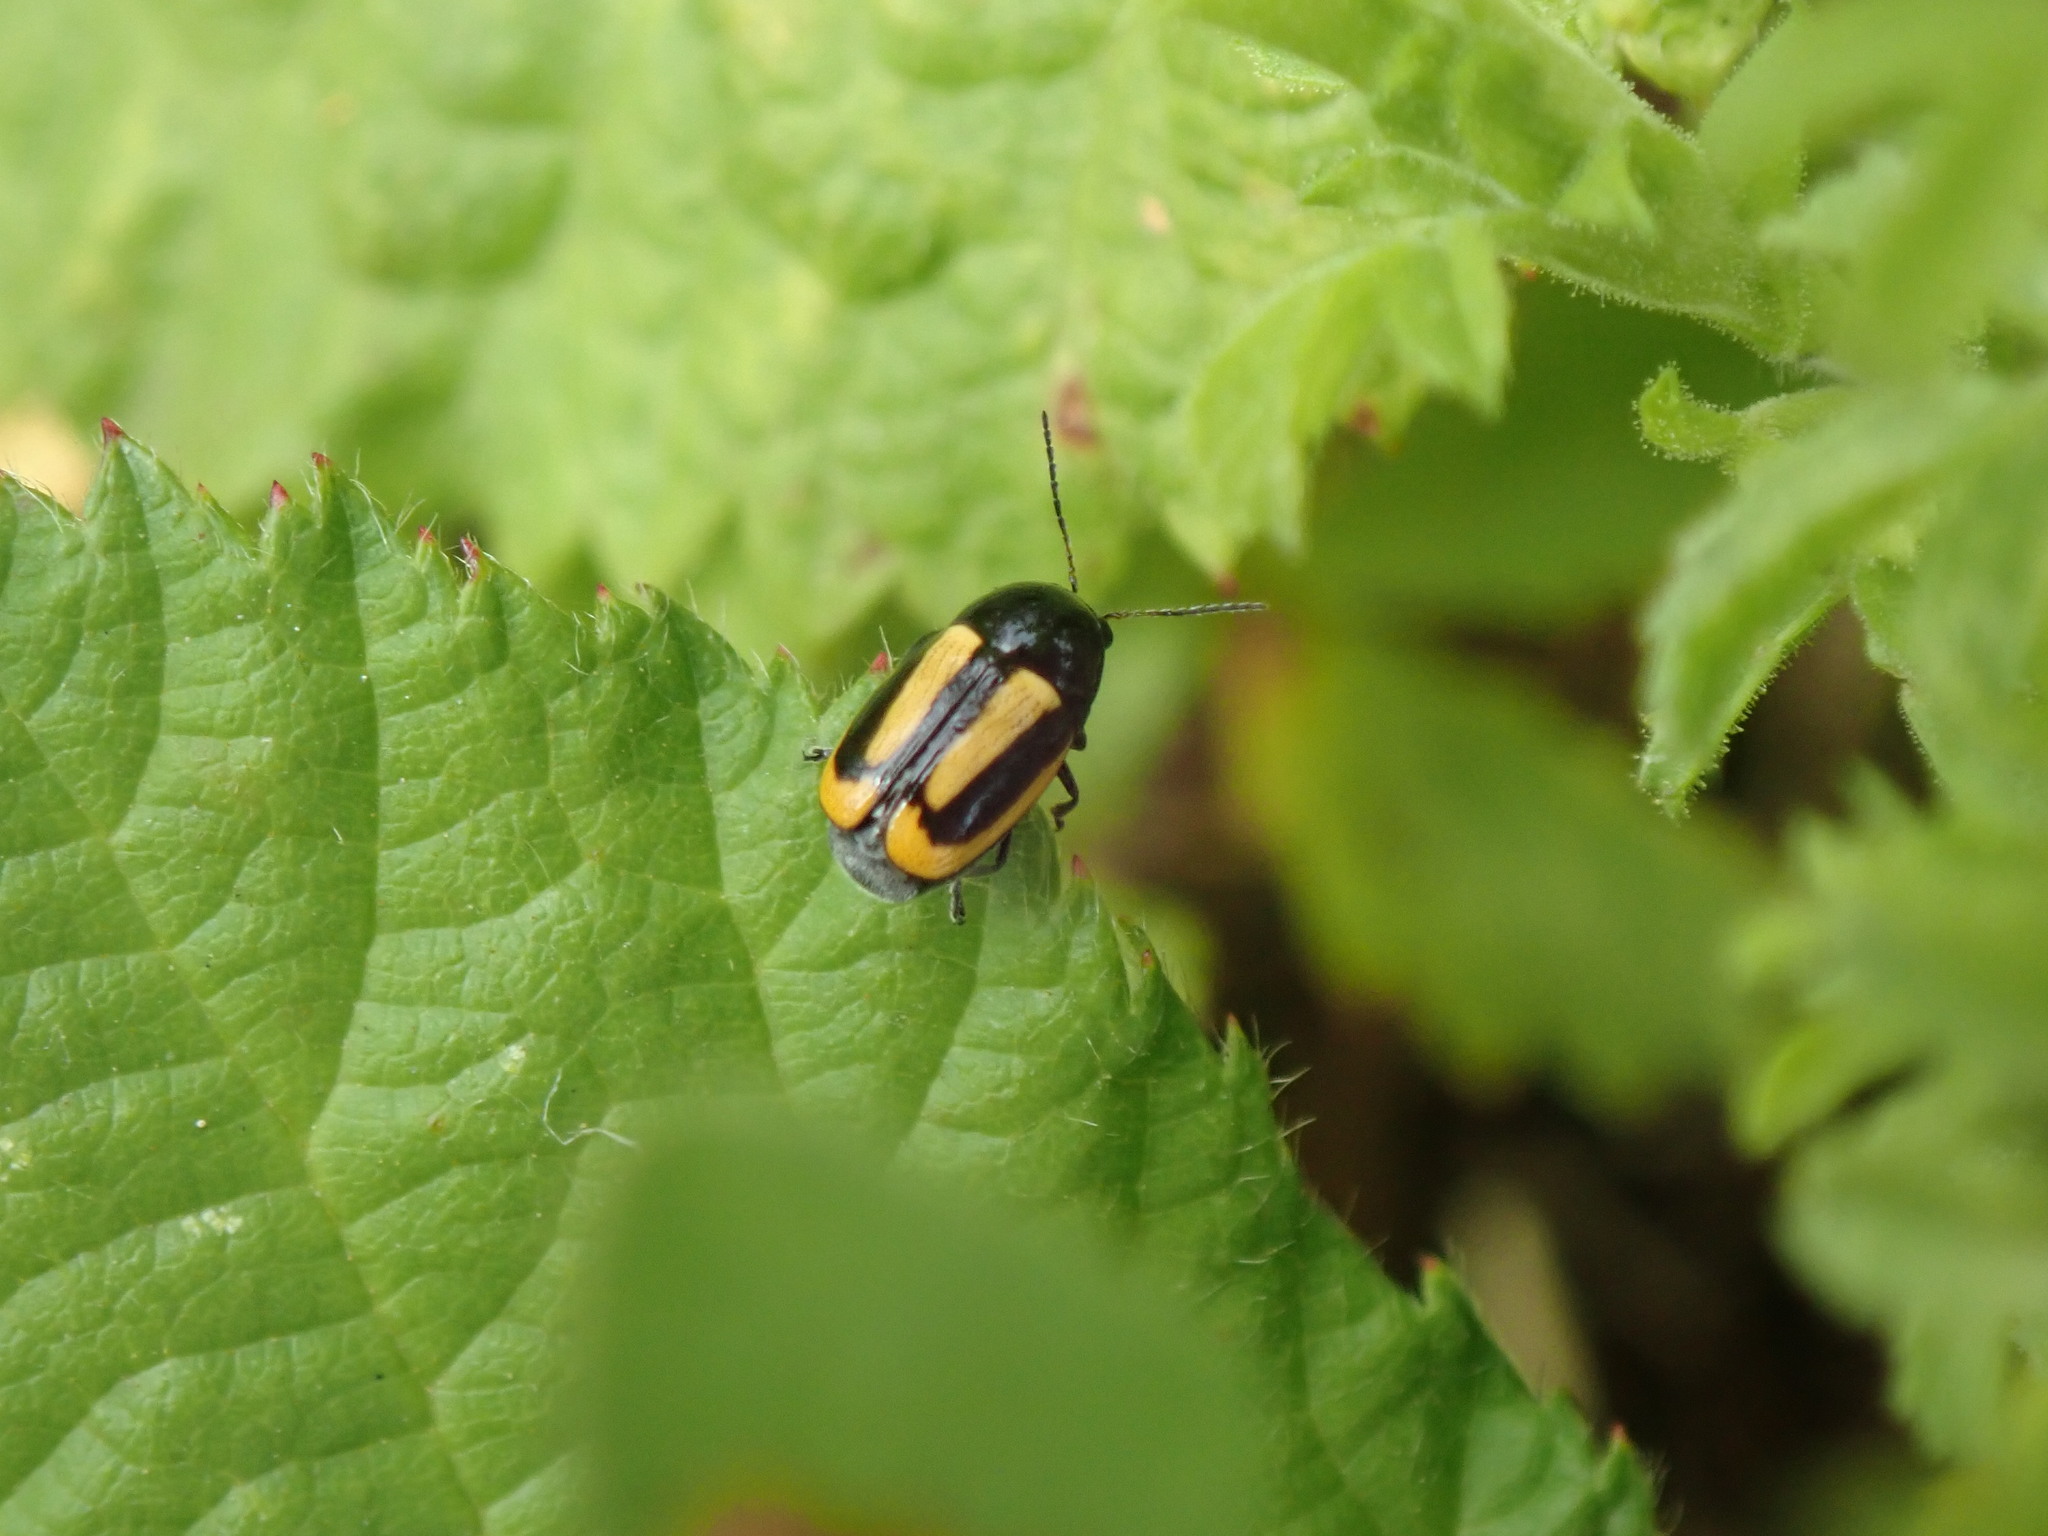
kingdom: Animalia
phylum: Arthropoda
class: Insecta
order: Coleoptera
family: Chrysomelidae
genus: Acalymma
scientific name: Acalymma vittatum
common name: Striped cucumber beetle
